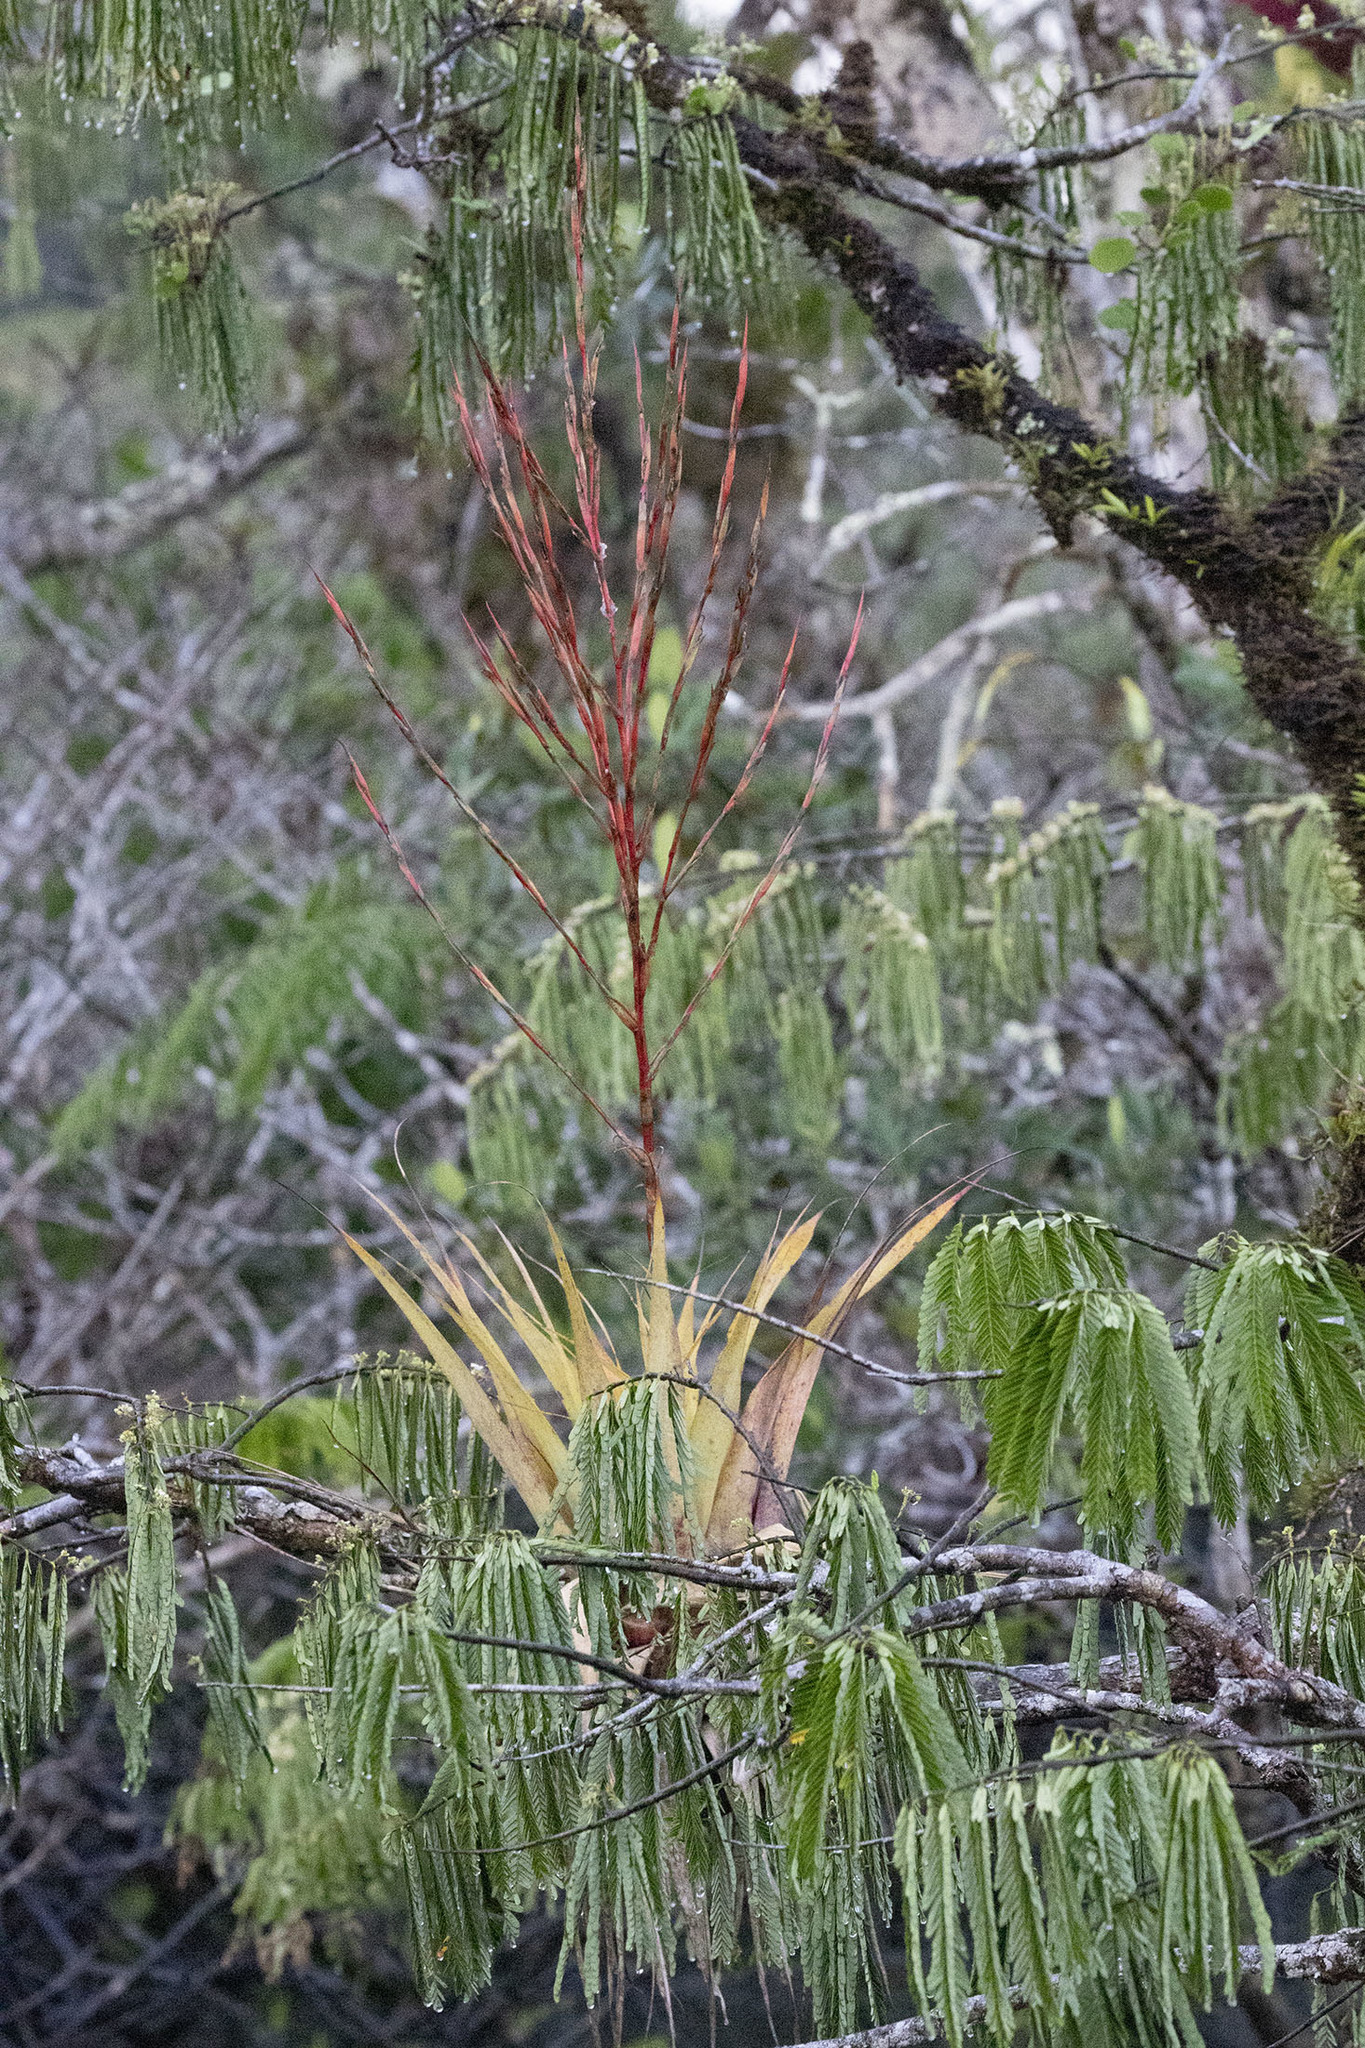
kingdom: Plantae
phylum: Tracheophyta
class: Liliopsida
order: Poales
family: Bromeliaceae
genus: Tillandsia
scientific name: Tillandsia adpressiflora
